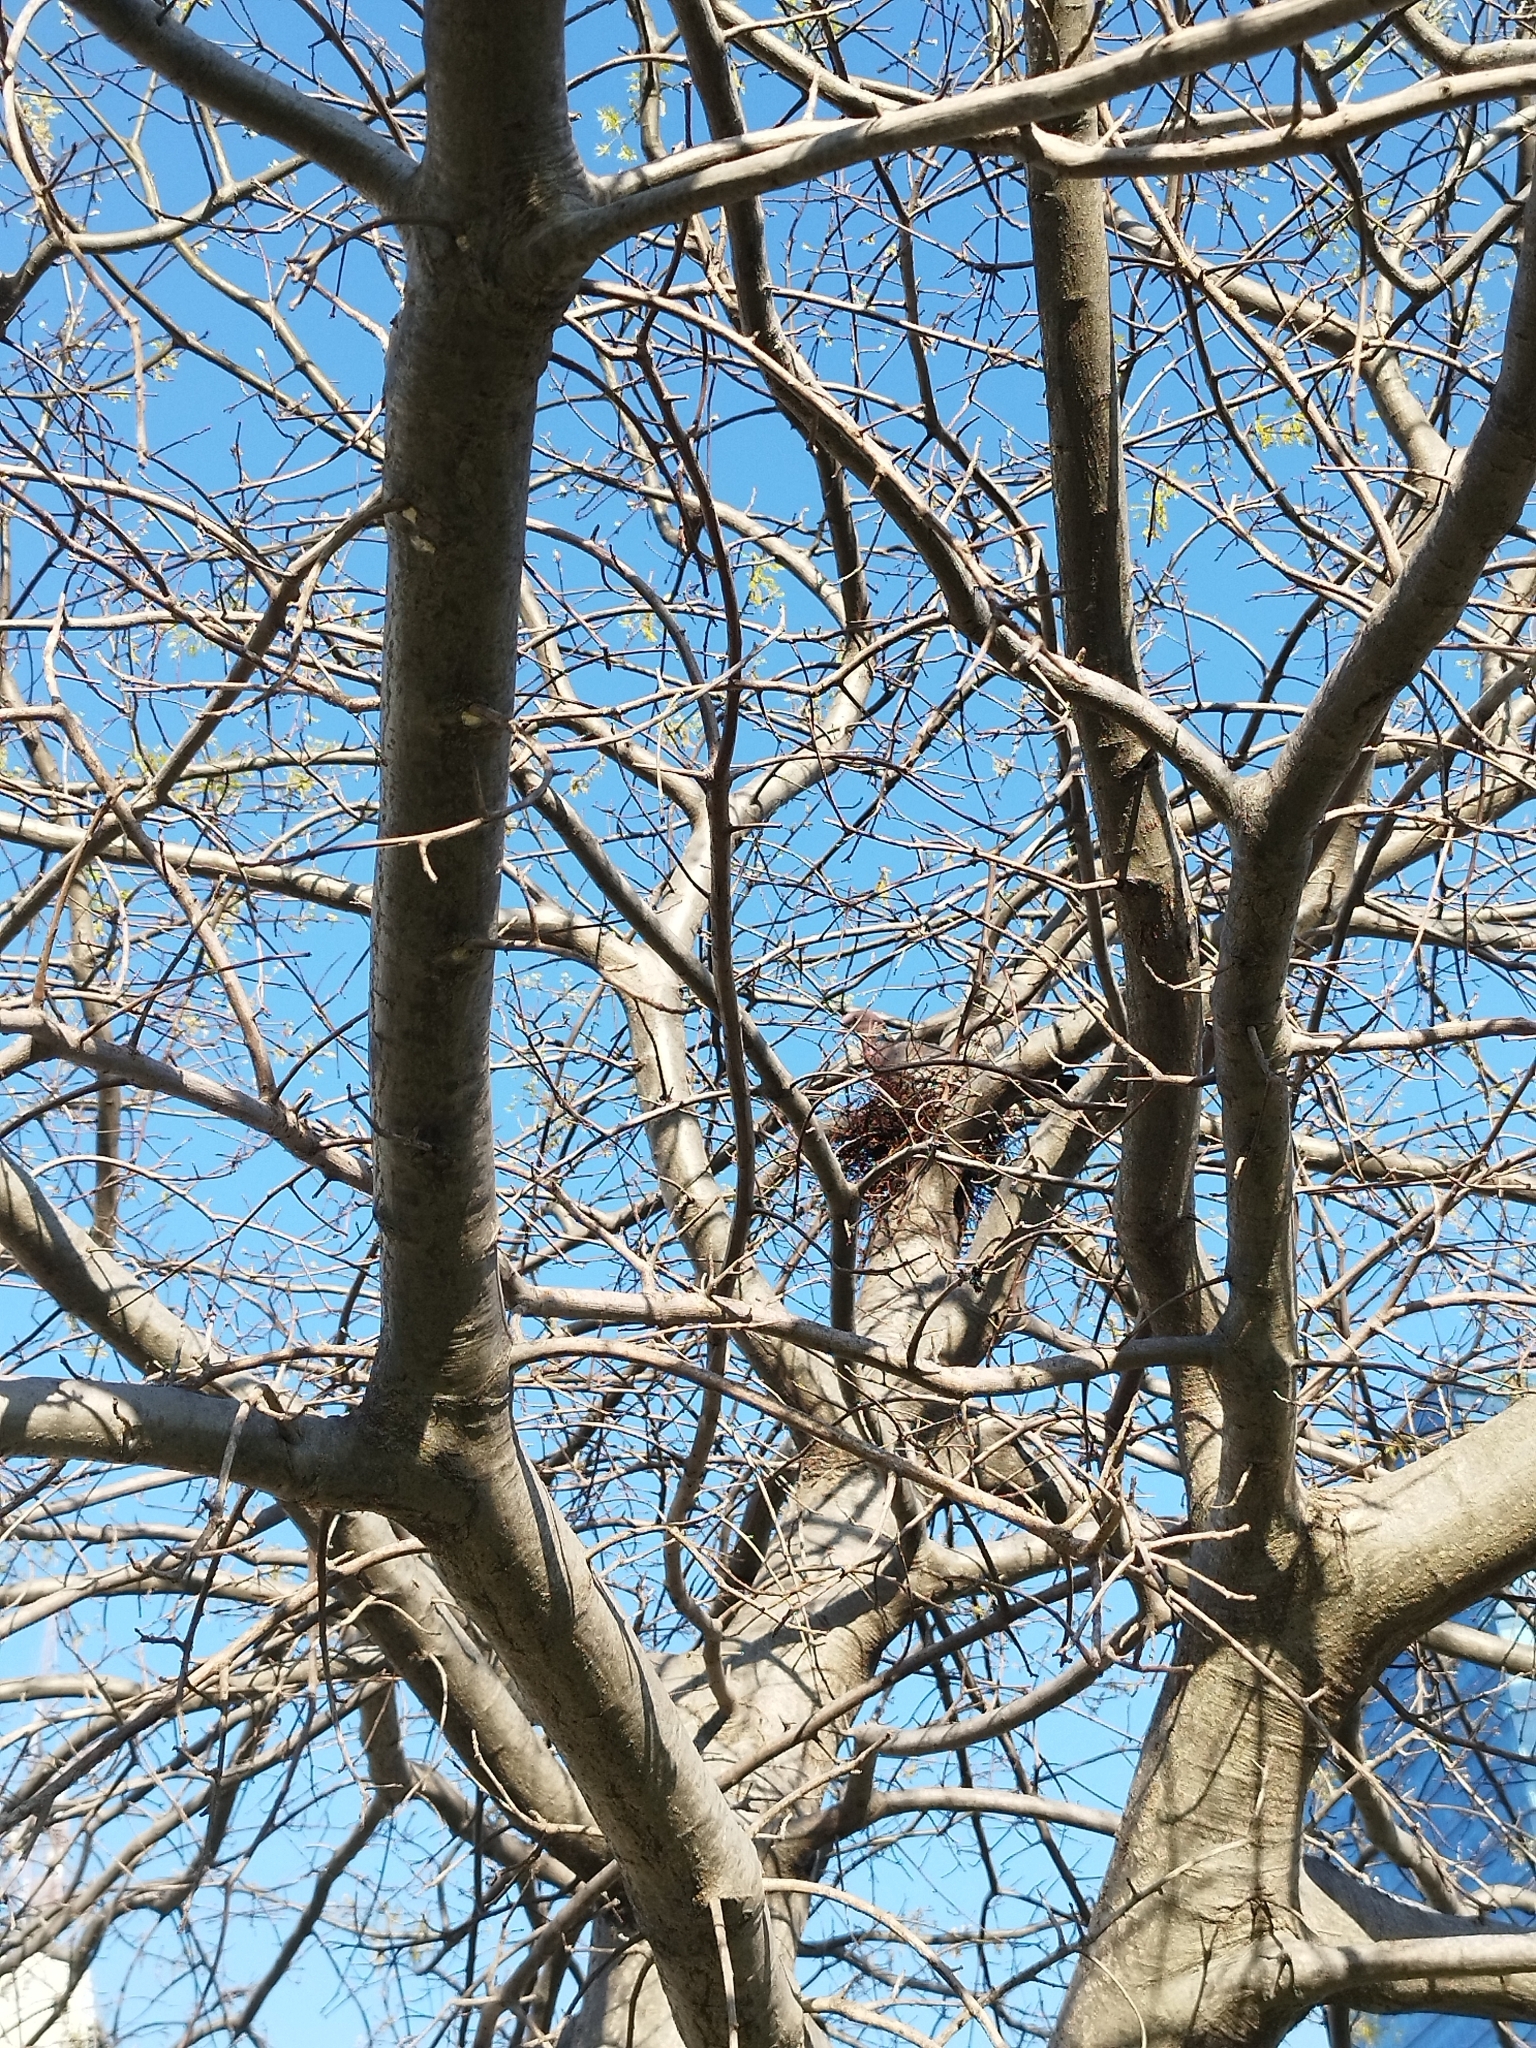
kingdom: Animalia
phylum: Chordata
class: Aves
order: Columbiformes
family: Columbidae
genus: Patagioenas
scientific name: Patagioenas picazuro
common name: Picazuro pigeon
